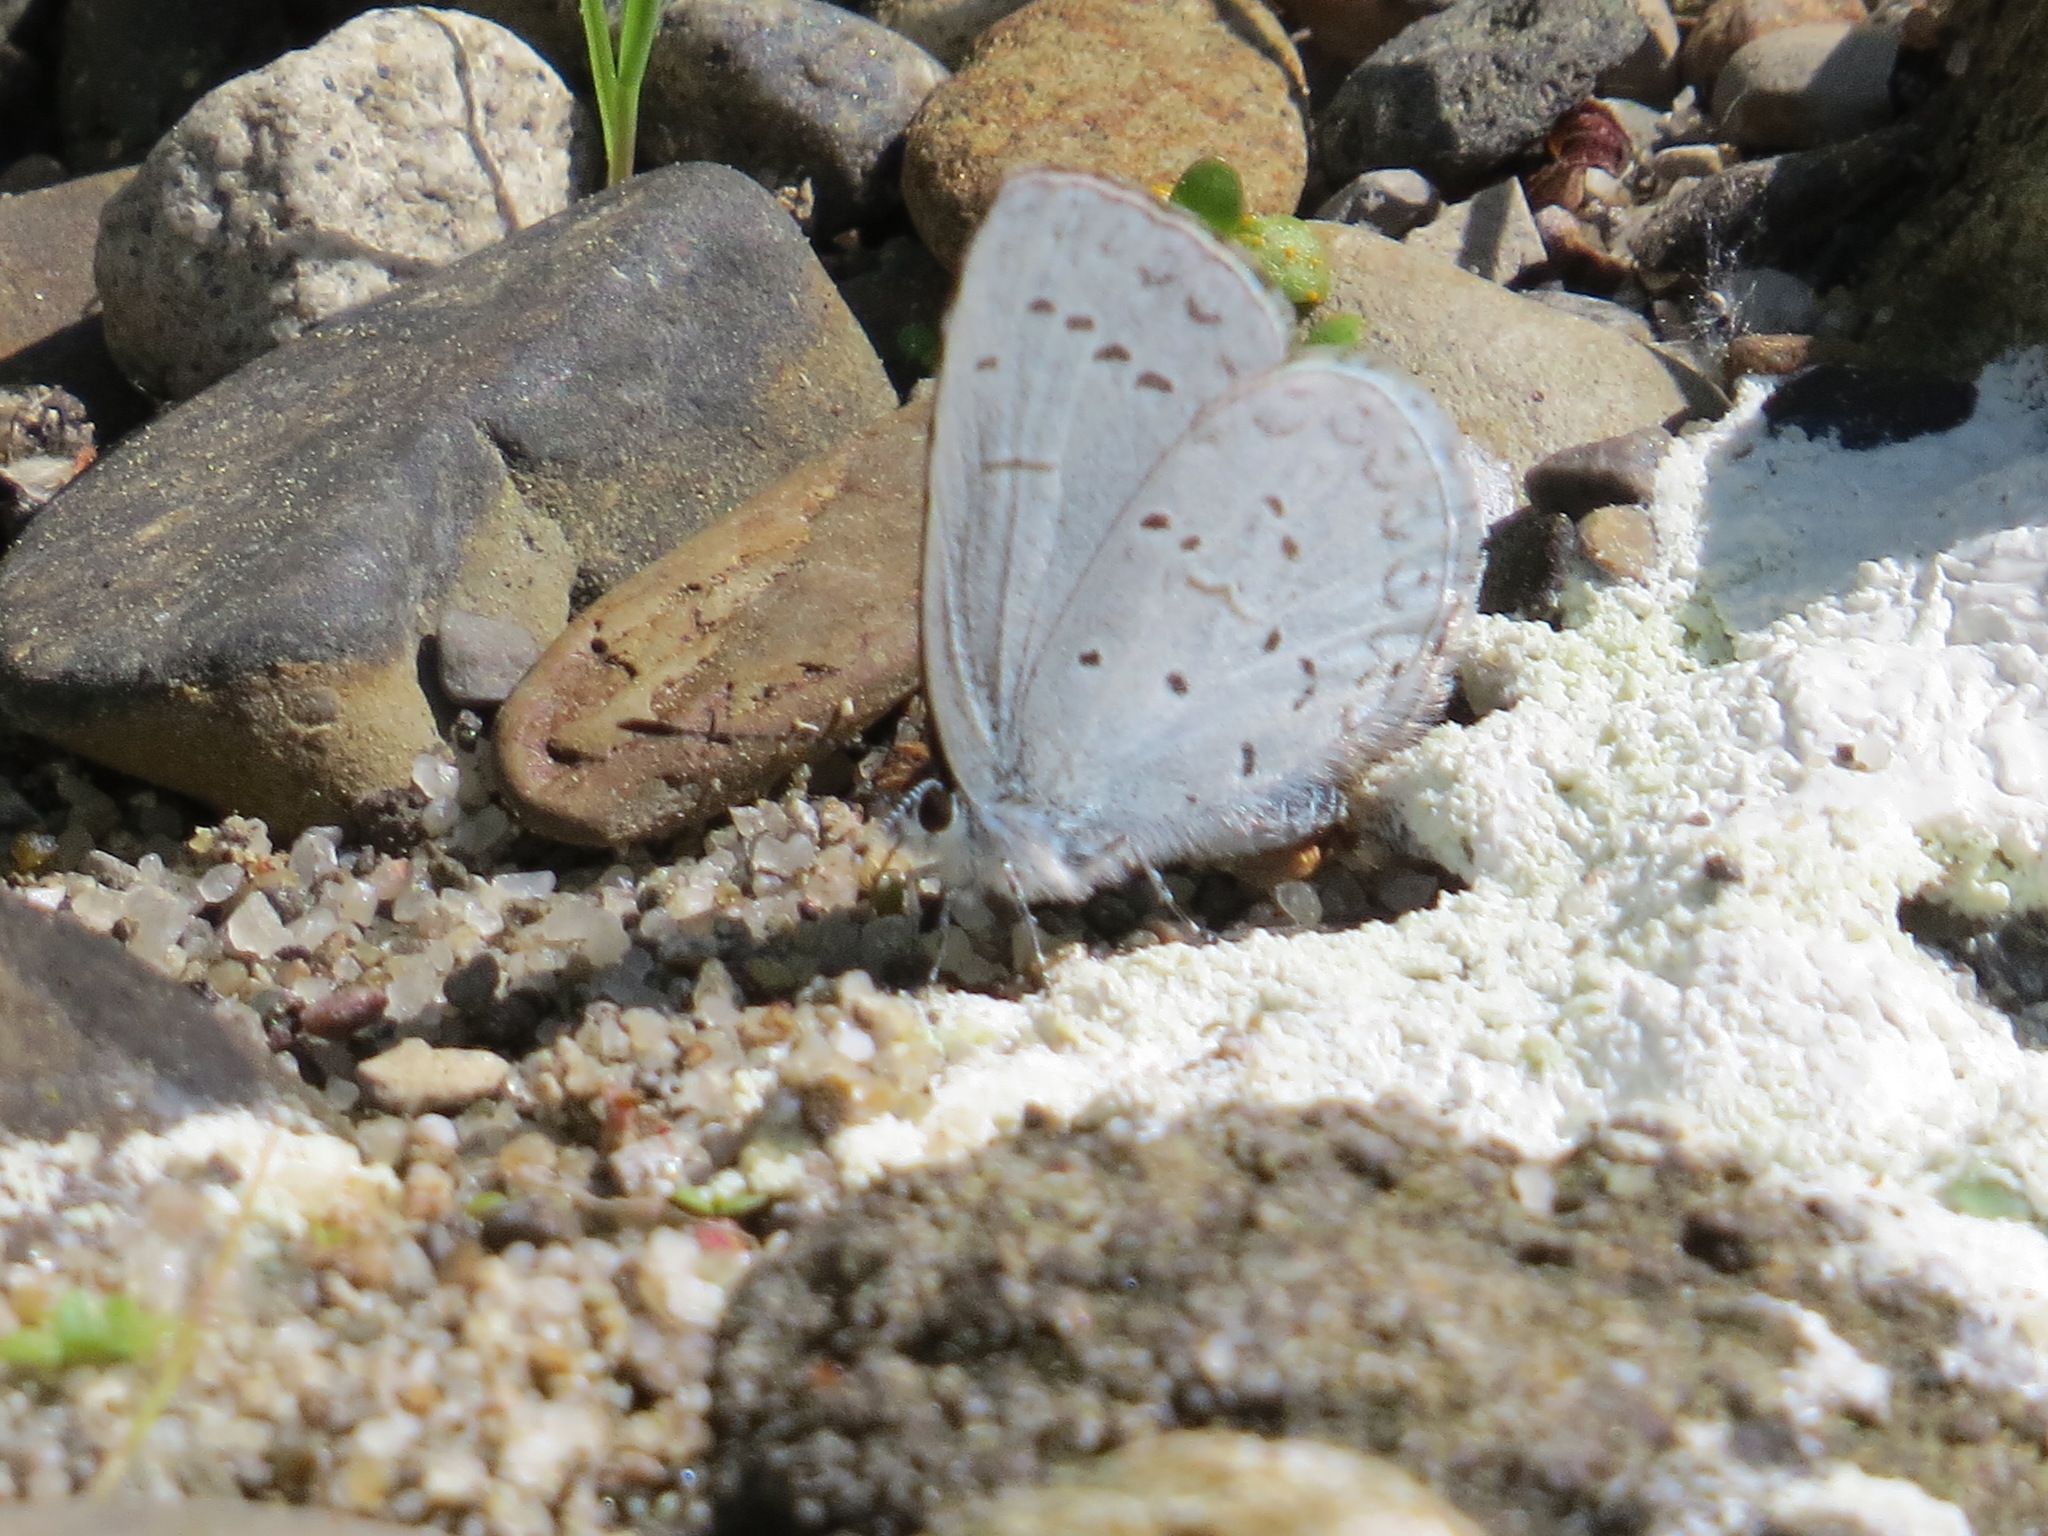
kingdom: Animalia
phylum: Arthropoda
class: Insecta
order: Lepidoptera
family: Lycaenidae
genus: Celastrina
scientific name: Celastrina ladon
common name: Spring azure
